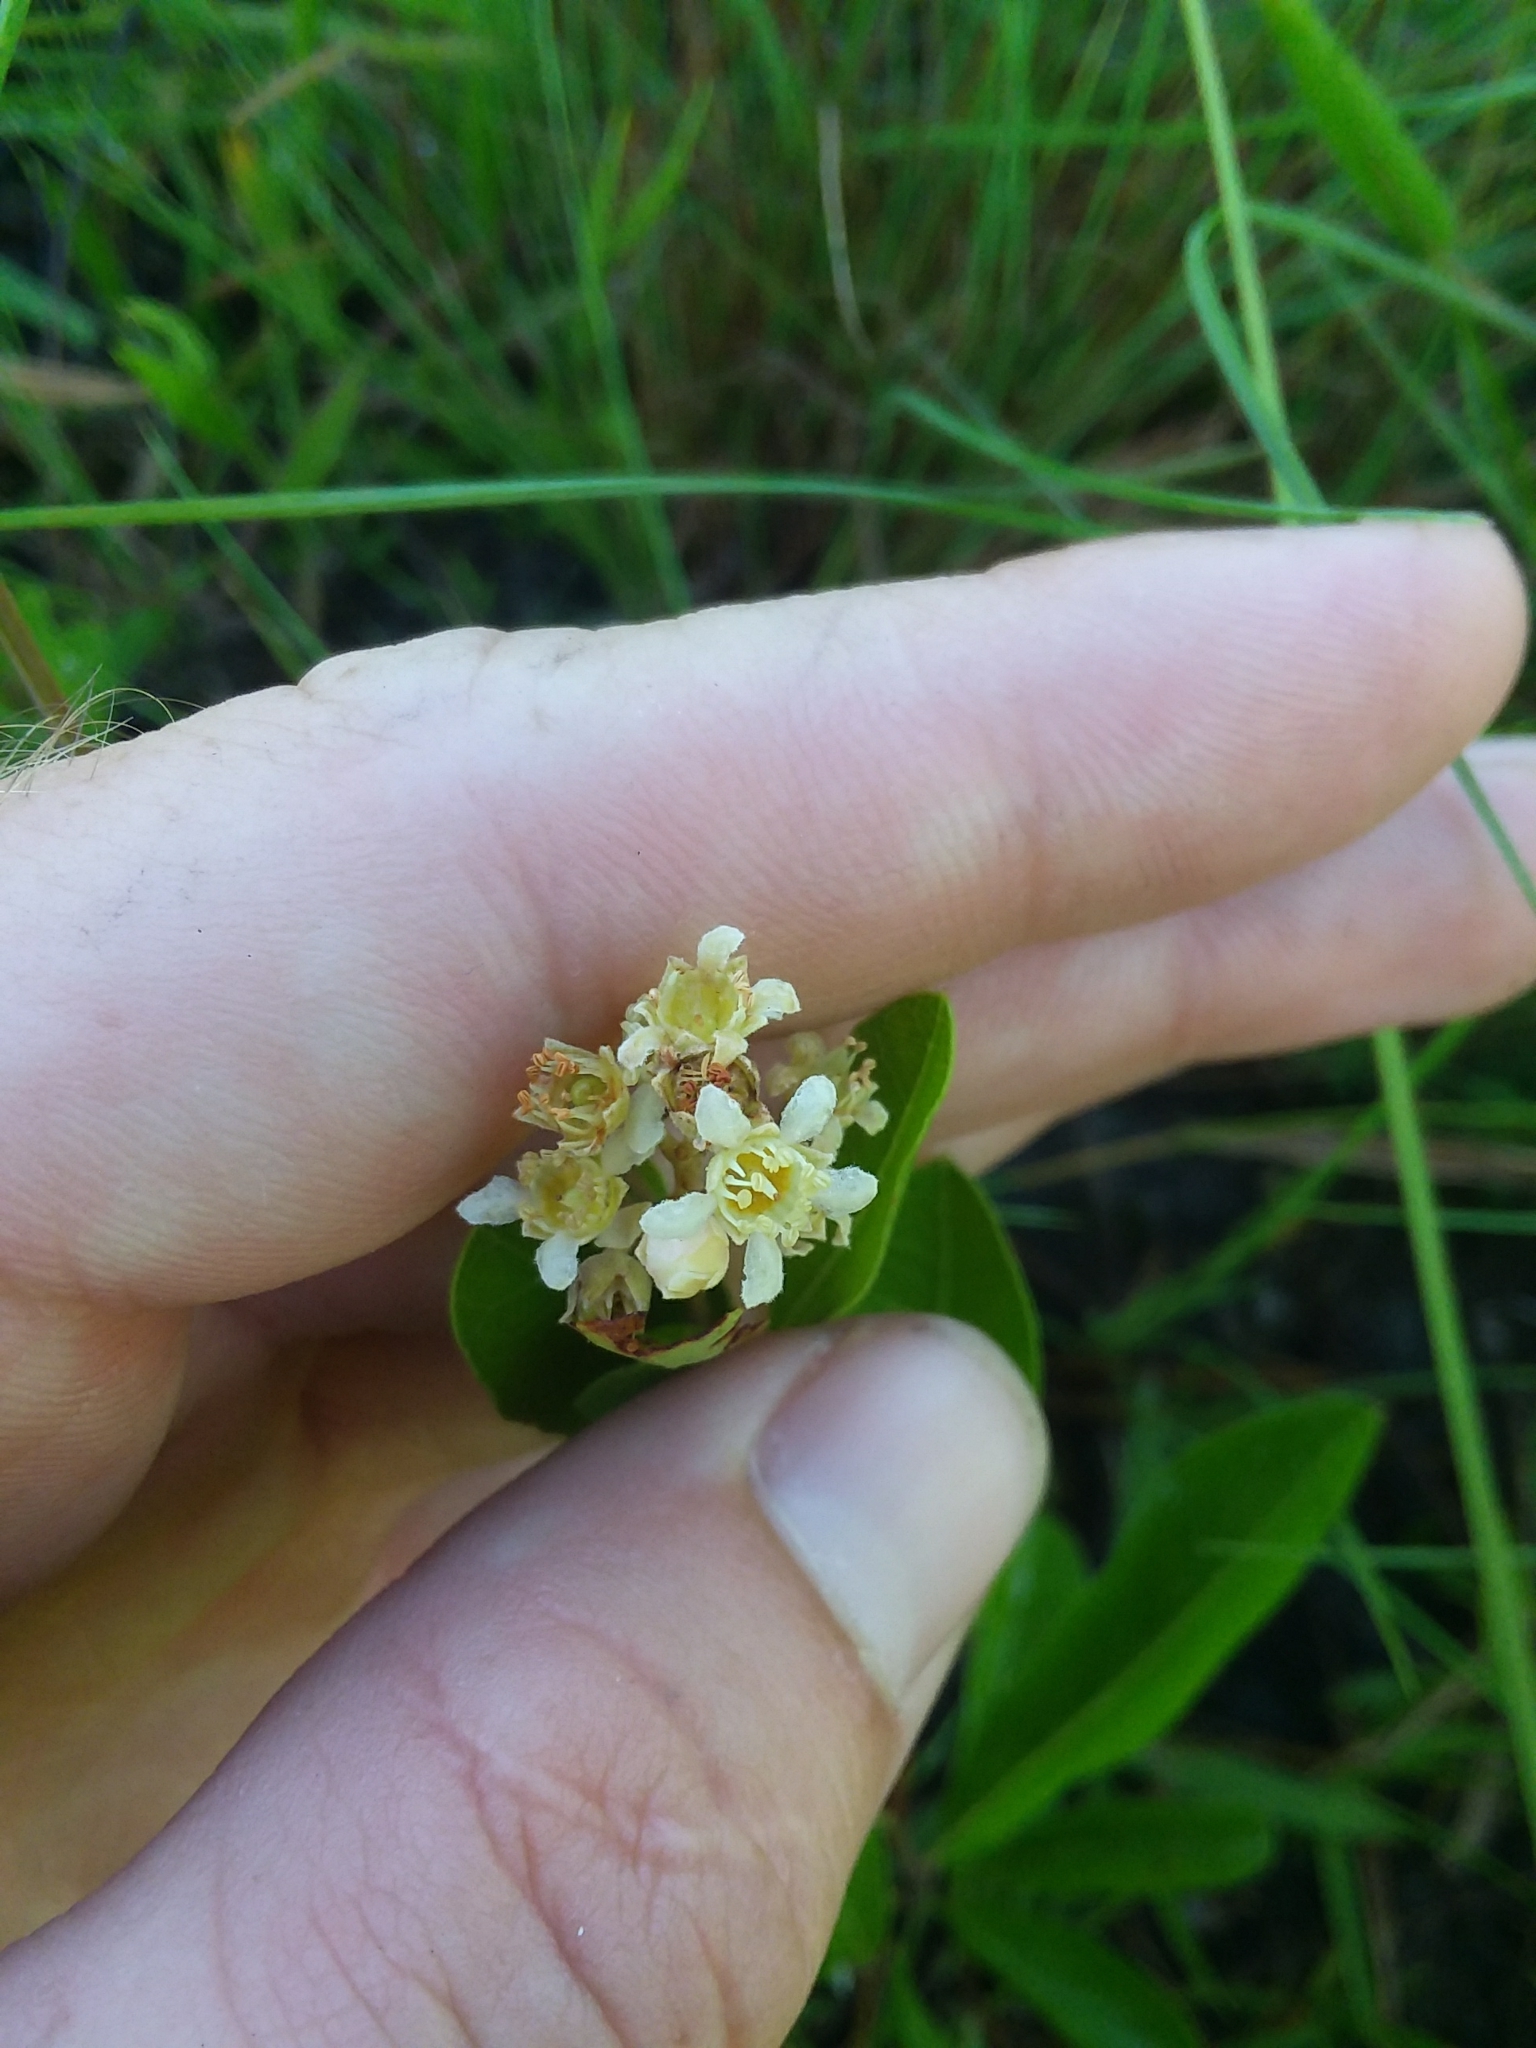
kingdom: Plantae
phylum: Tracheophyta
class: Magnoliopsida
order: Malpighiales
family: Chrysobalanaceae
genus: Geobalanus
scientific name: Geobalanus oblongifolius
